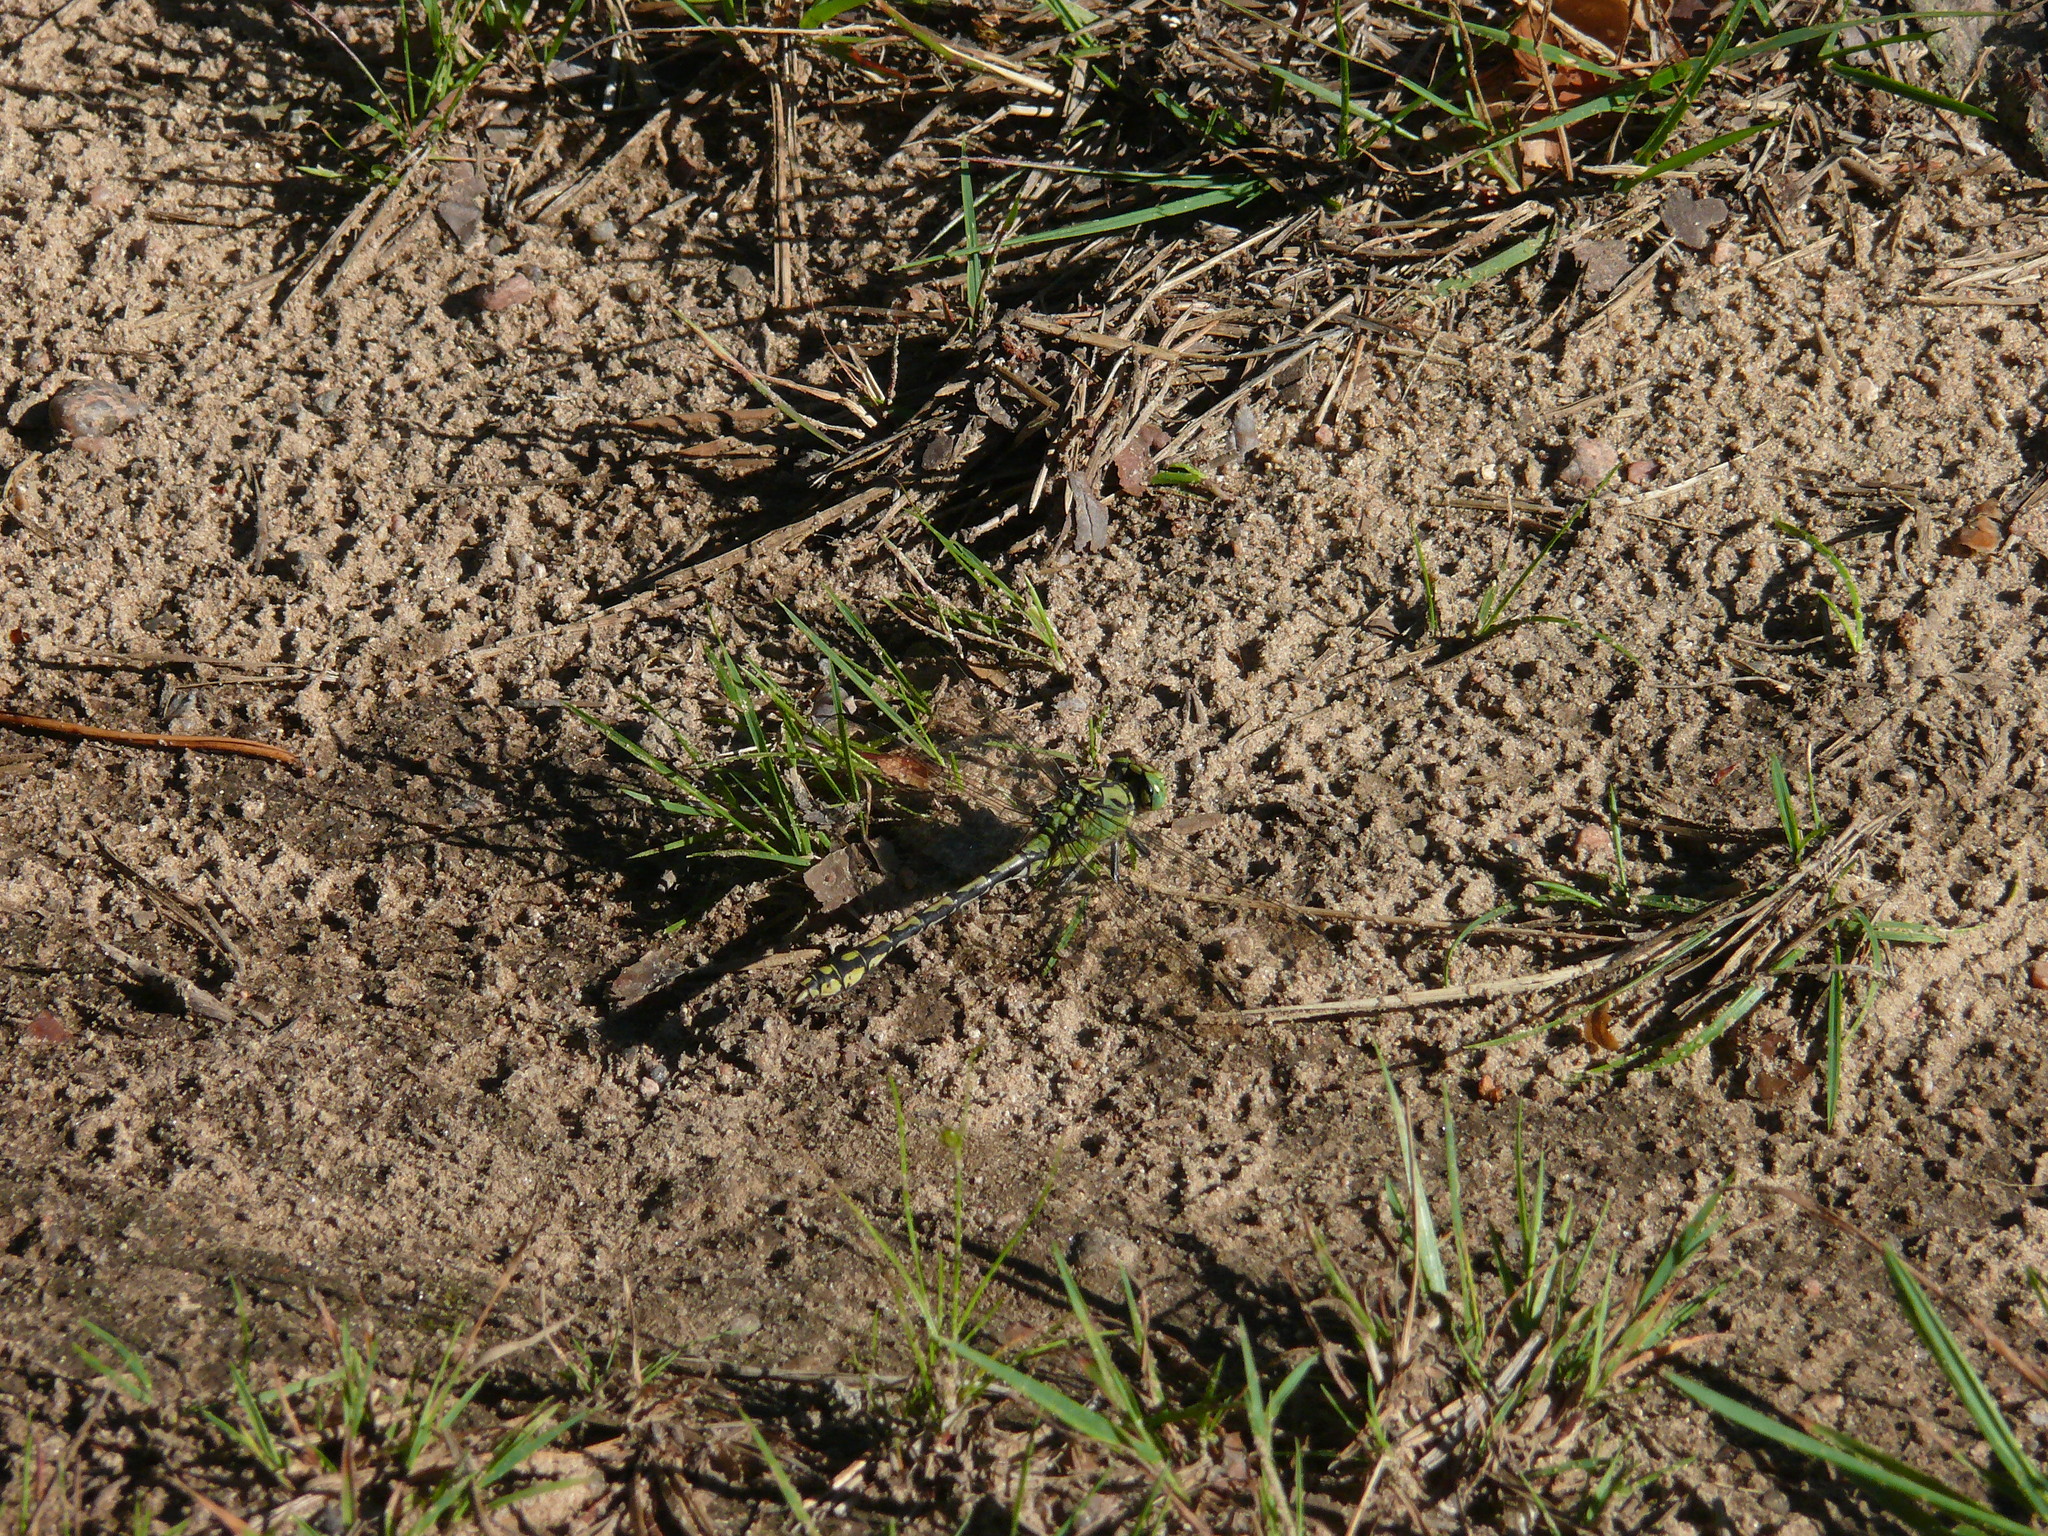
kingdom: Animalia
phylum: Arthropoda
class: Insecta
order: Odonata
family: Gomphidae
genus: Ophiogomphus
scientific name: Ophiogomphus cecilia
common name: Green snaketail
